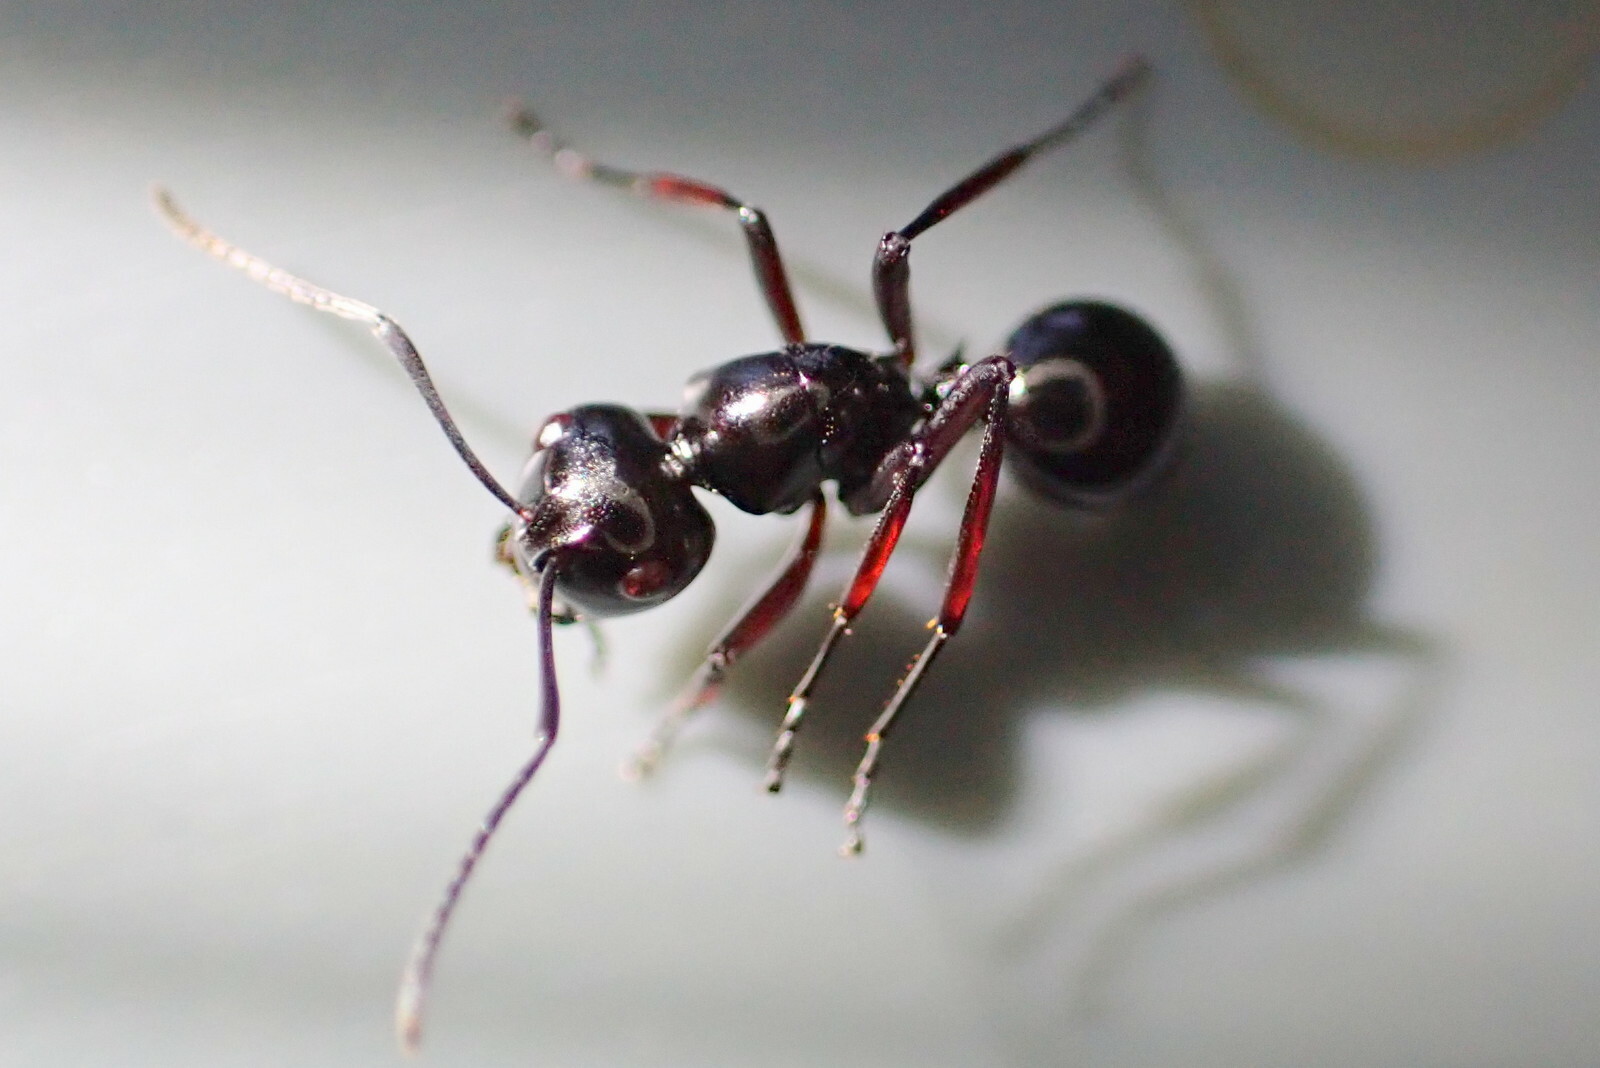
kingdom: Animalia
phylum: Arthropoda
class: Insecta
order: Hymenoptera
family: Formicidae
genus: Polyrhachis
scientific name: Polyrhachis australis
